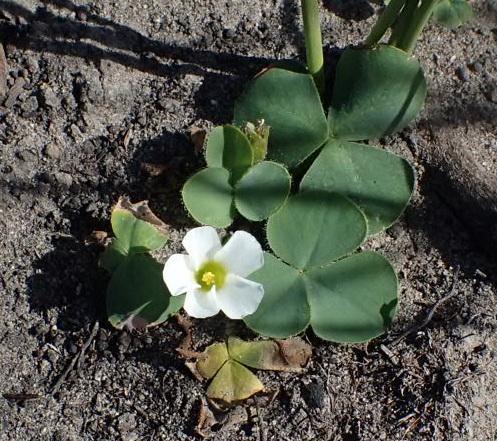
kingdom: Plantae
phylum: Tracheophyta
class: Magnoliopsida
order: Oxalidales
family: Oxalidaceae
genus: Oxalis
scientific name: Oxalis purpurea
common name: Purple woodsorrel
